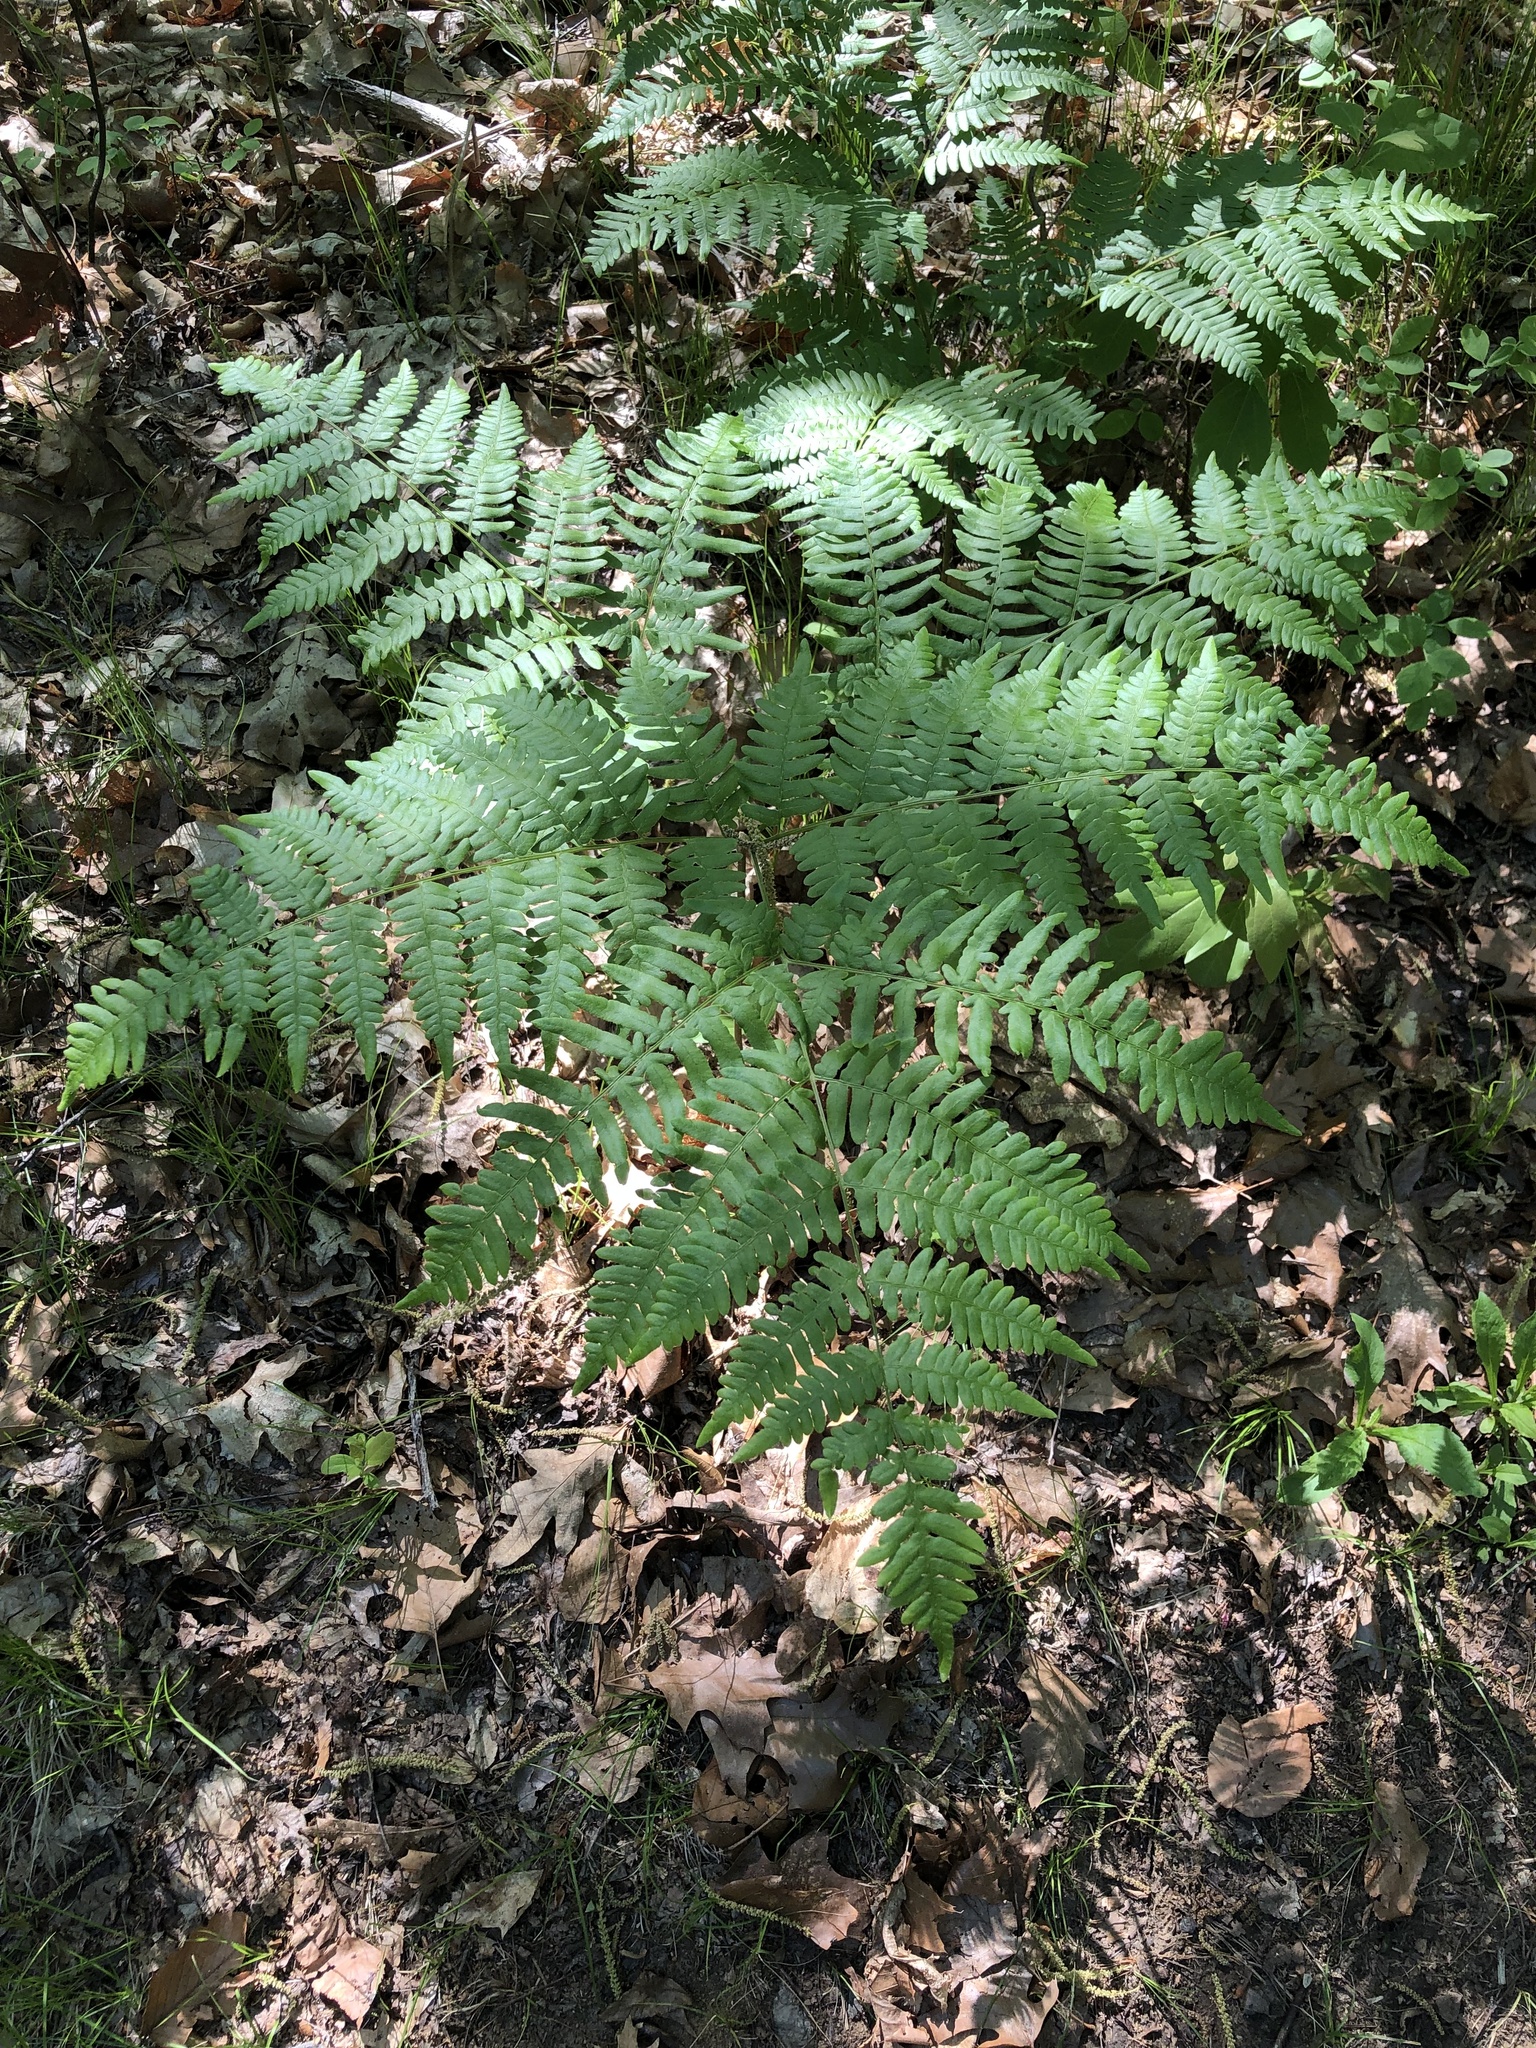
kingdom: Plantae
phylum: Tracheophyta
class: Polypodiopsida
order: Polypodiales
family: Dennstaedtiaceae
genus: Pteridium
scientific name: Pteridium aquilinum
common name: Bracken
